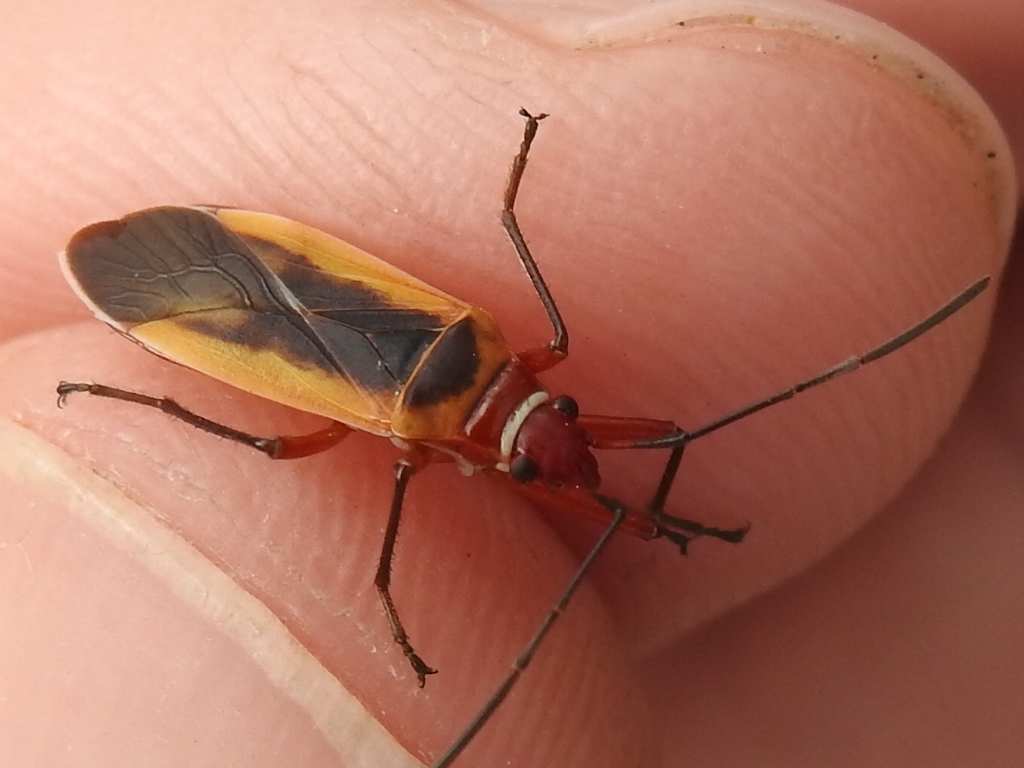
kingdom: Animalia
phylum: Arthropoda
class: Insecta
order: Hemiptera
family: Pyrrhocoridae
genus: Dysdercus
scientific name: Dysdercus mimulus
